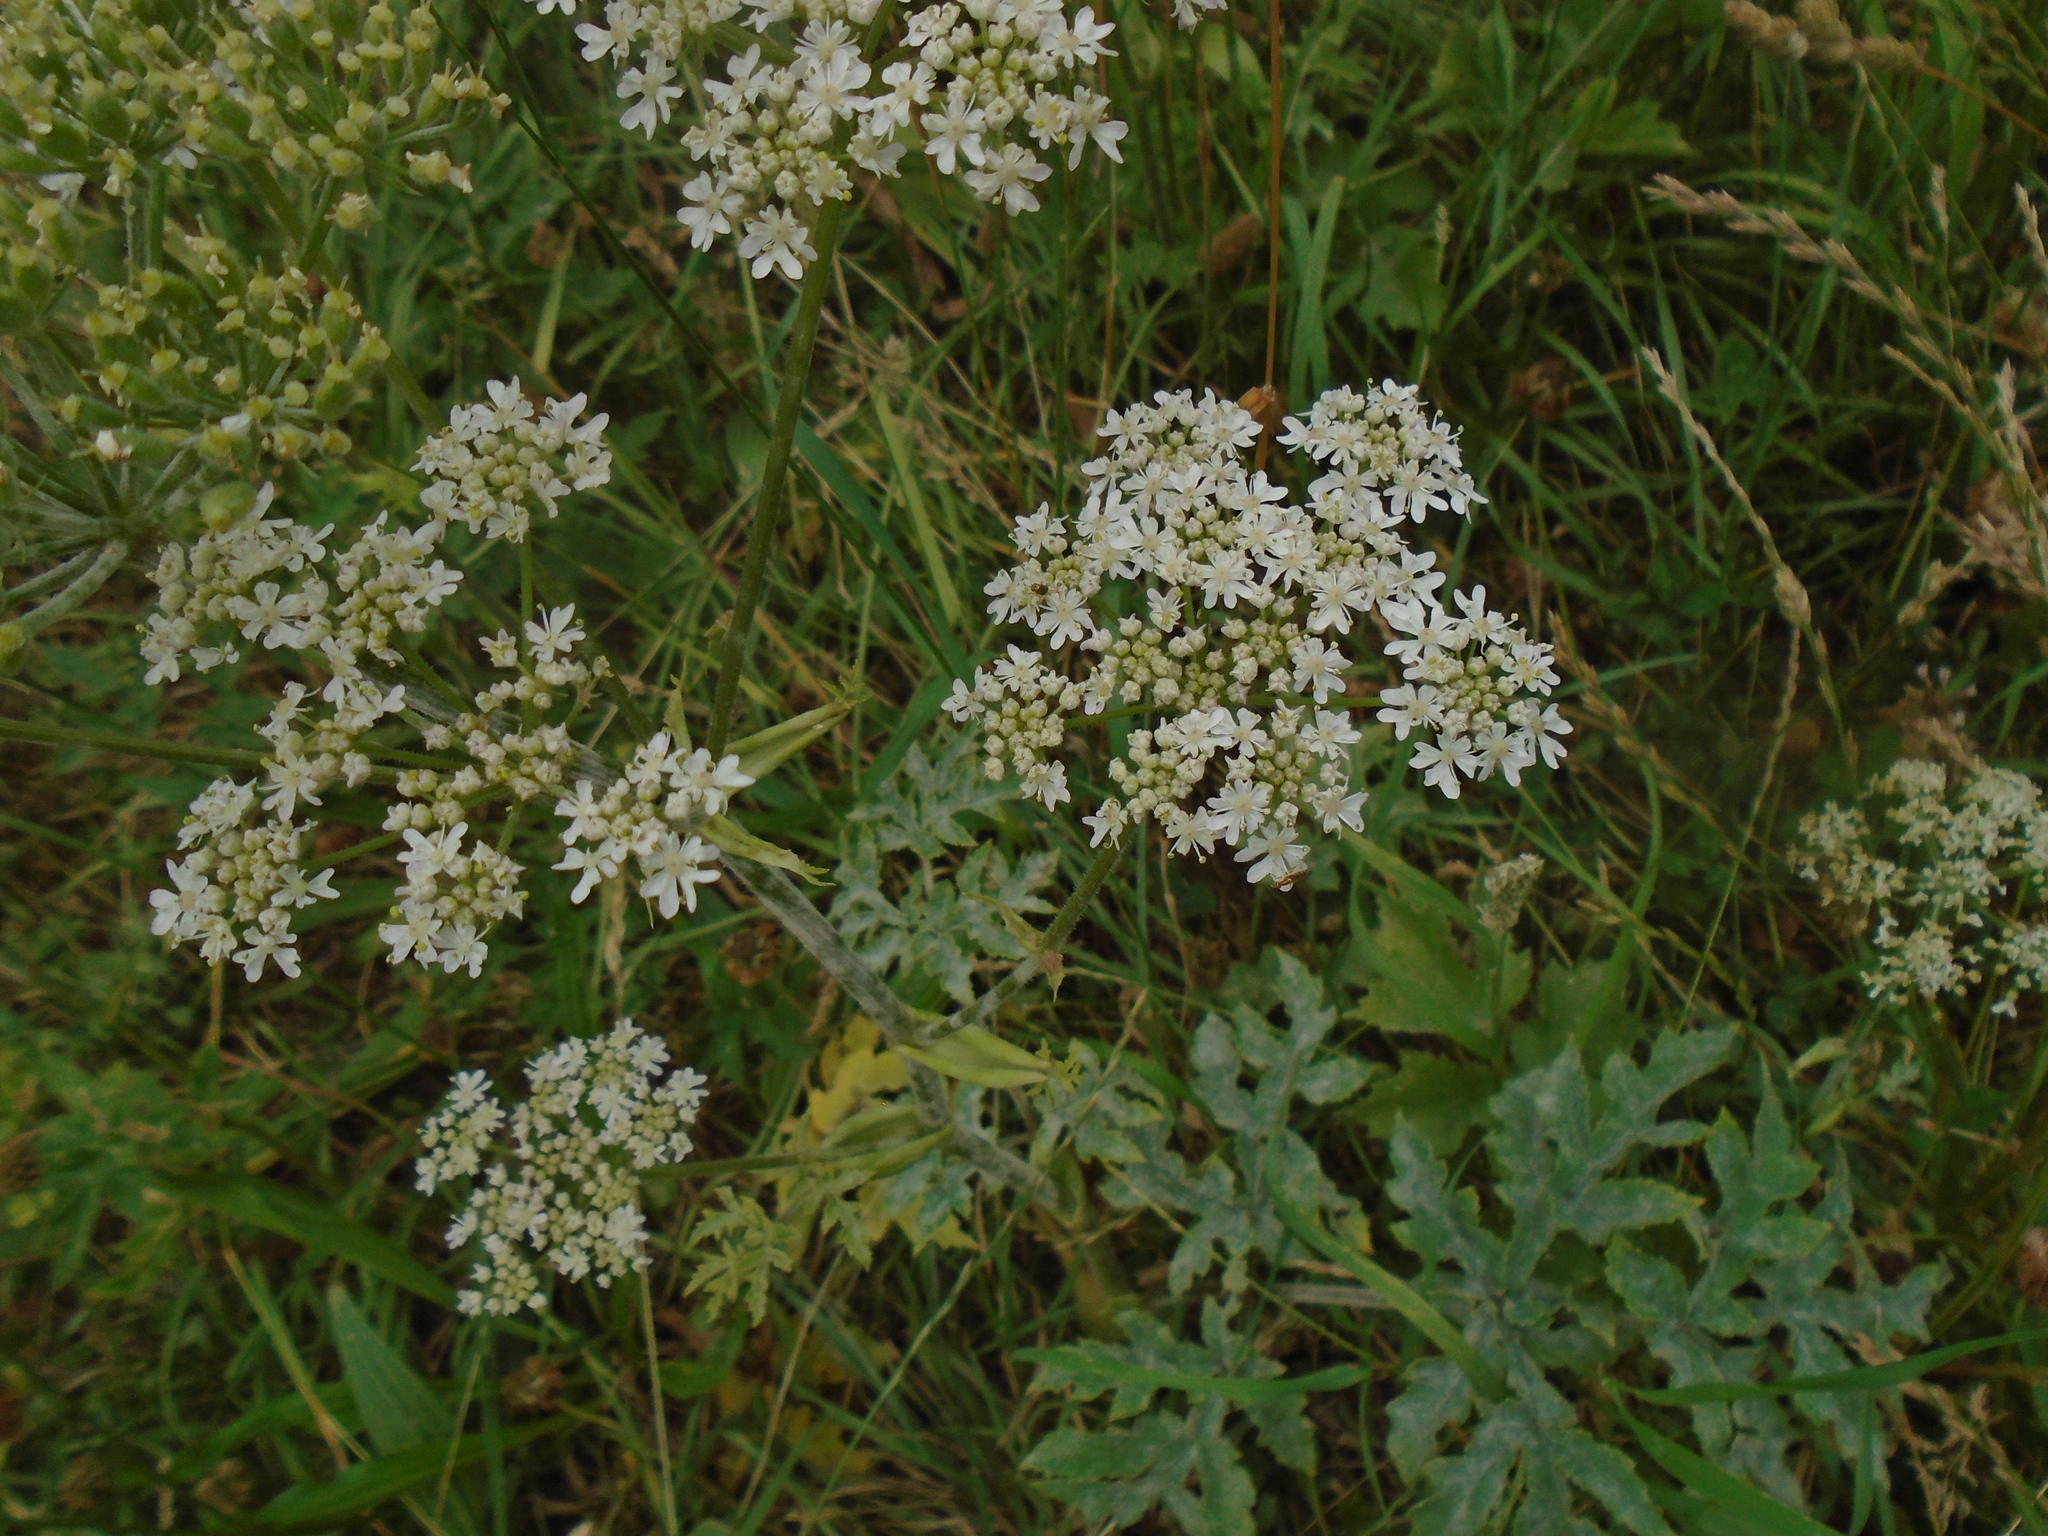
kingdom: Plantae
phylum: Tracheophyta
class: Magnoliopsida
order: Apiales
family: Apiaceae
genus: Heracleum
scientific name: Heracleum sphondylium
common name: Hogweed
